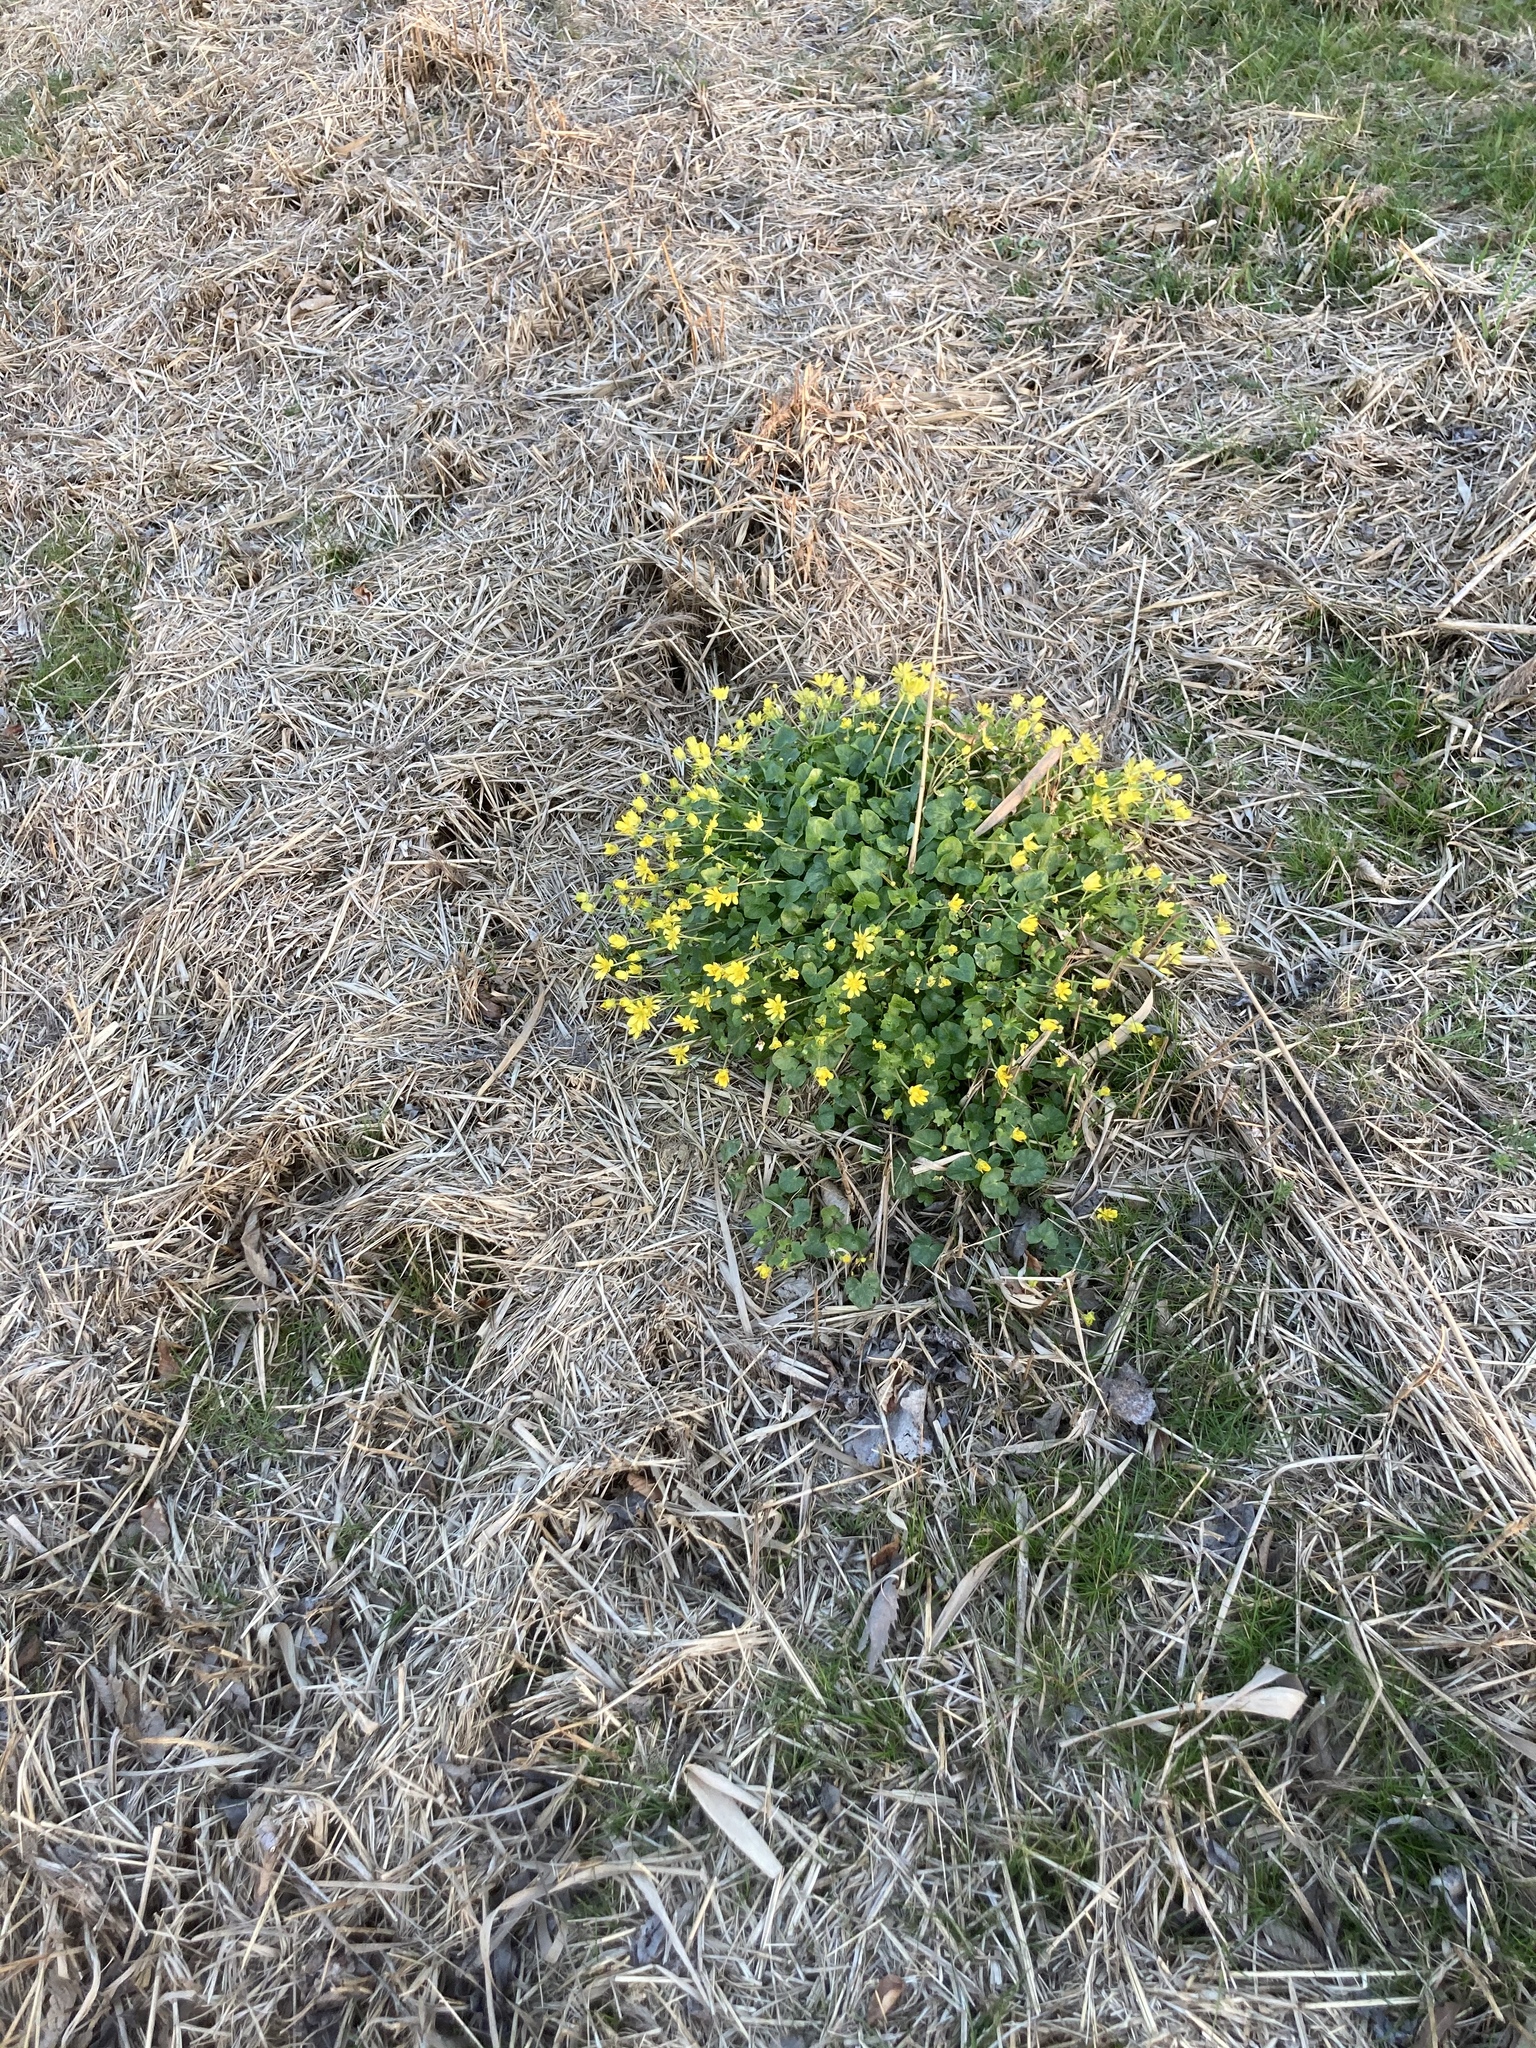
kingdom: Plantae
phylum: Tracheophyta
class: Magnoliopsida
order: Ranunculales
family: Ranunculaceae
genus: Ficaria
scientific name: Ficaria verna
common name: Lesser celandine
